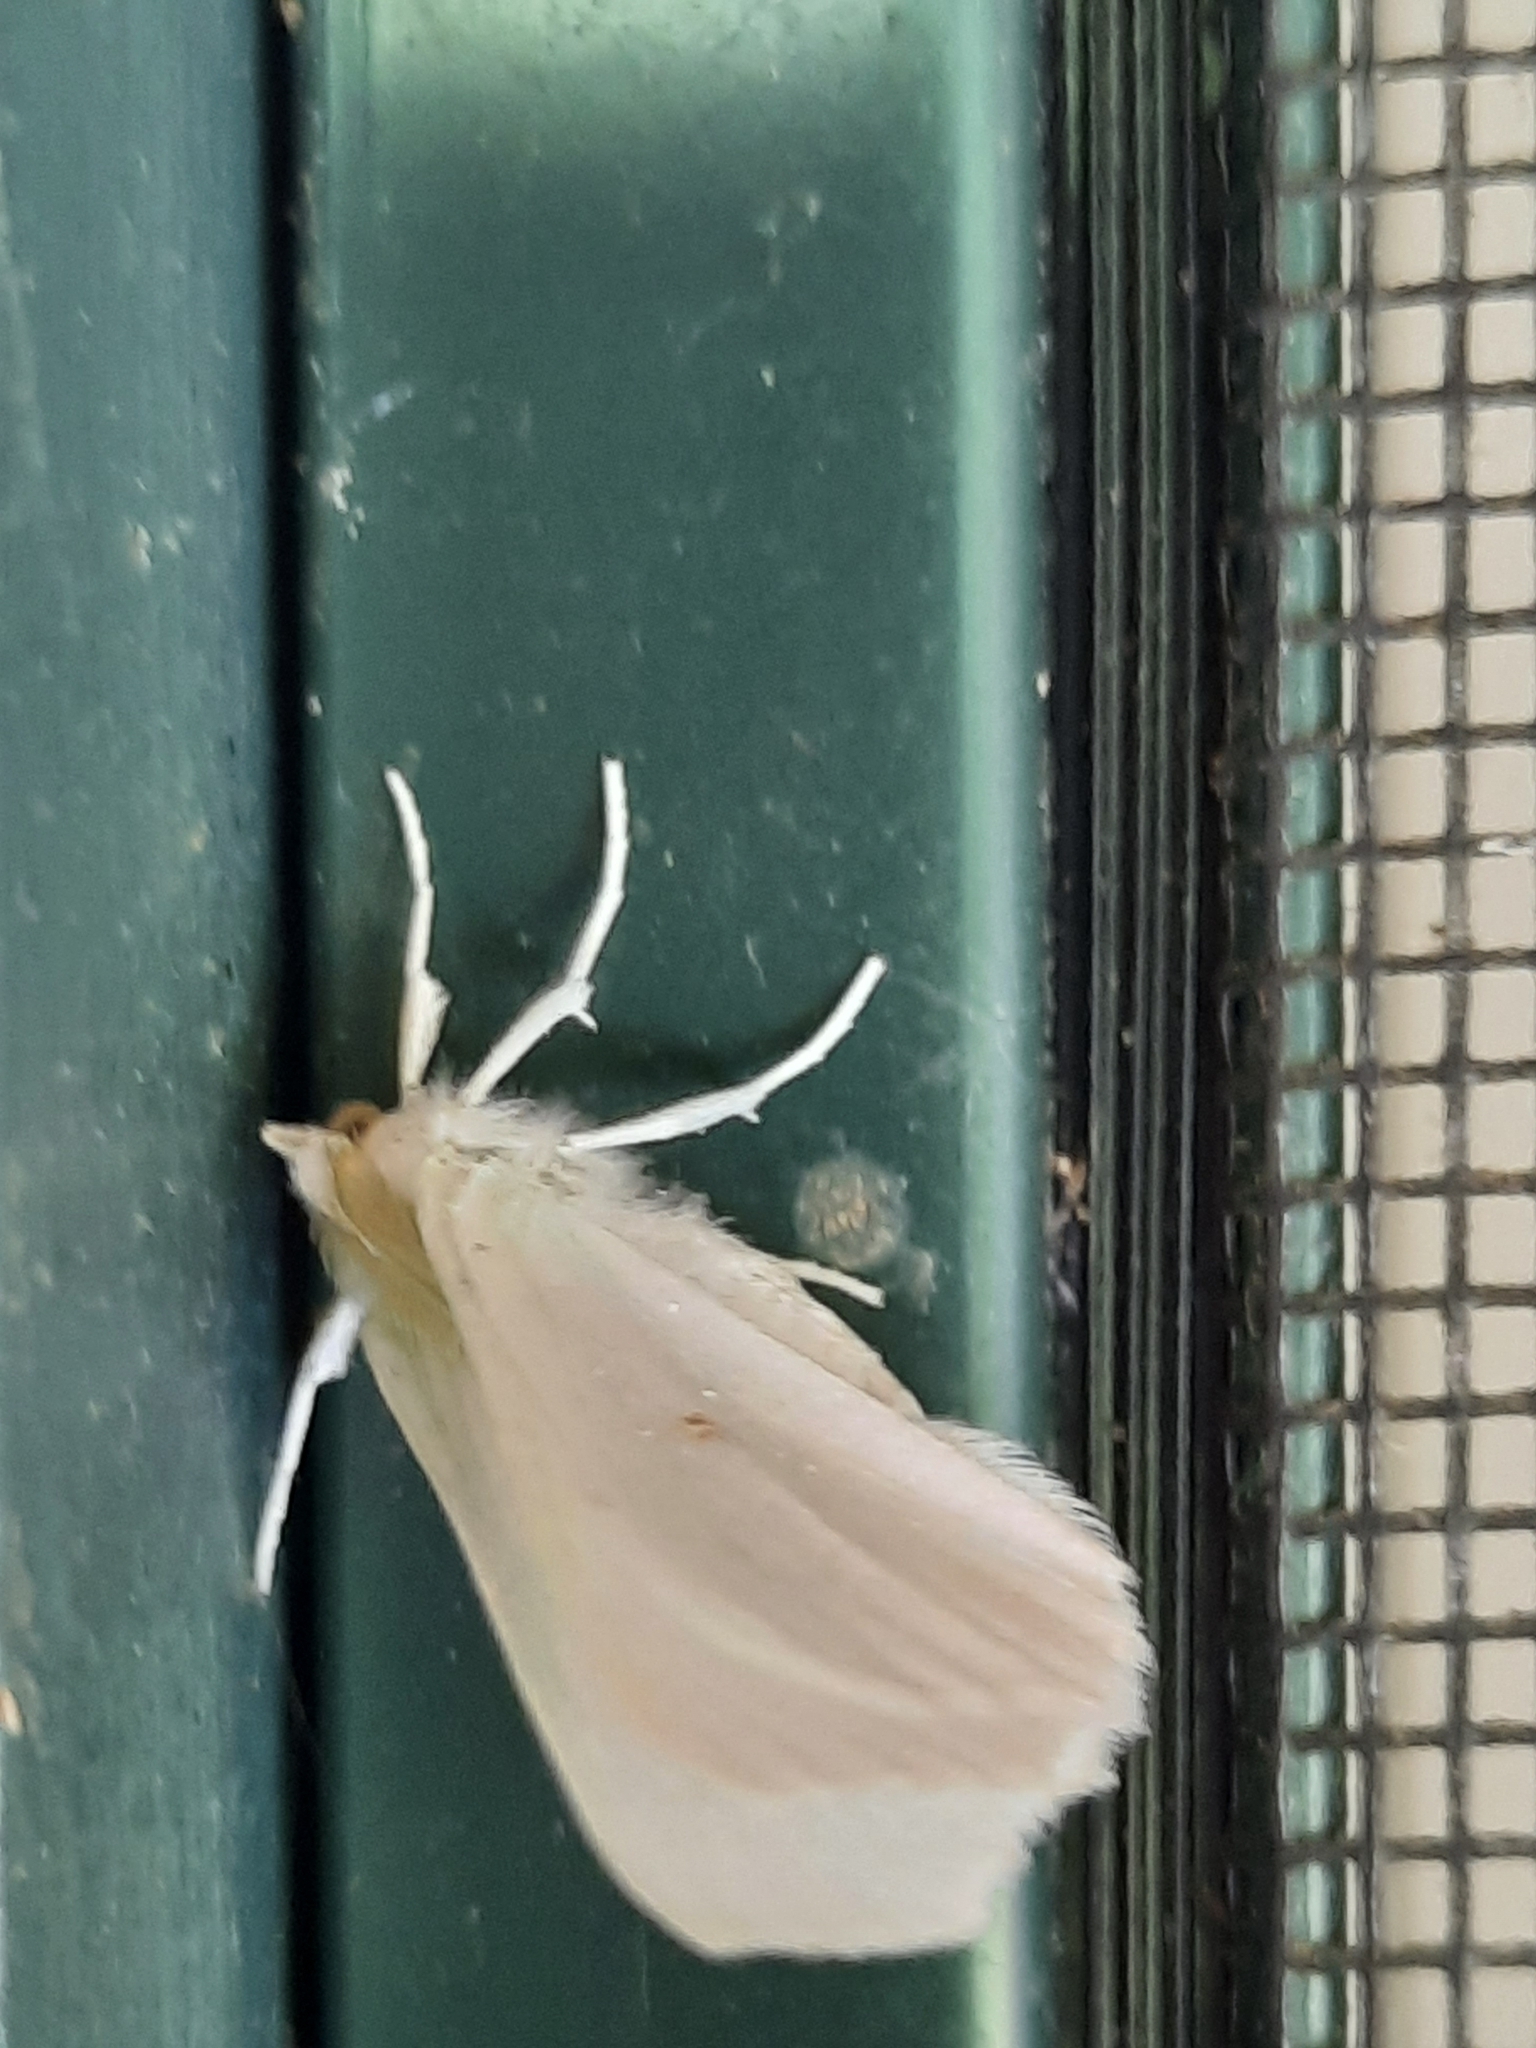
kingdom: Animalia
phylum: Arthropoda
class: Insecta
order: Lepidoptera
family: Geometridae
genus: Ennomos
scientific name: Ennomos subsignaria
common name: Elm spanworm
